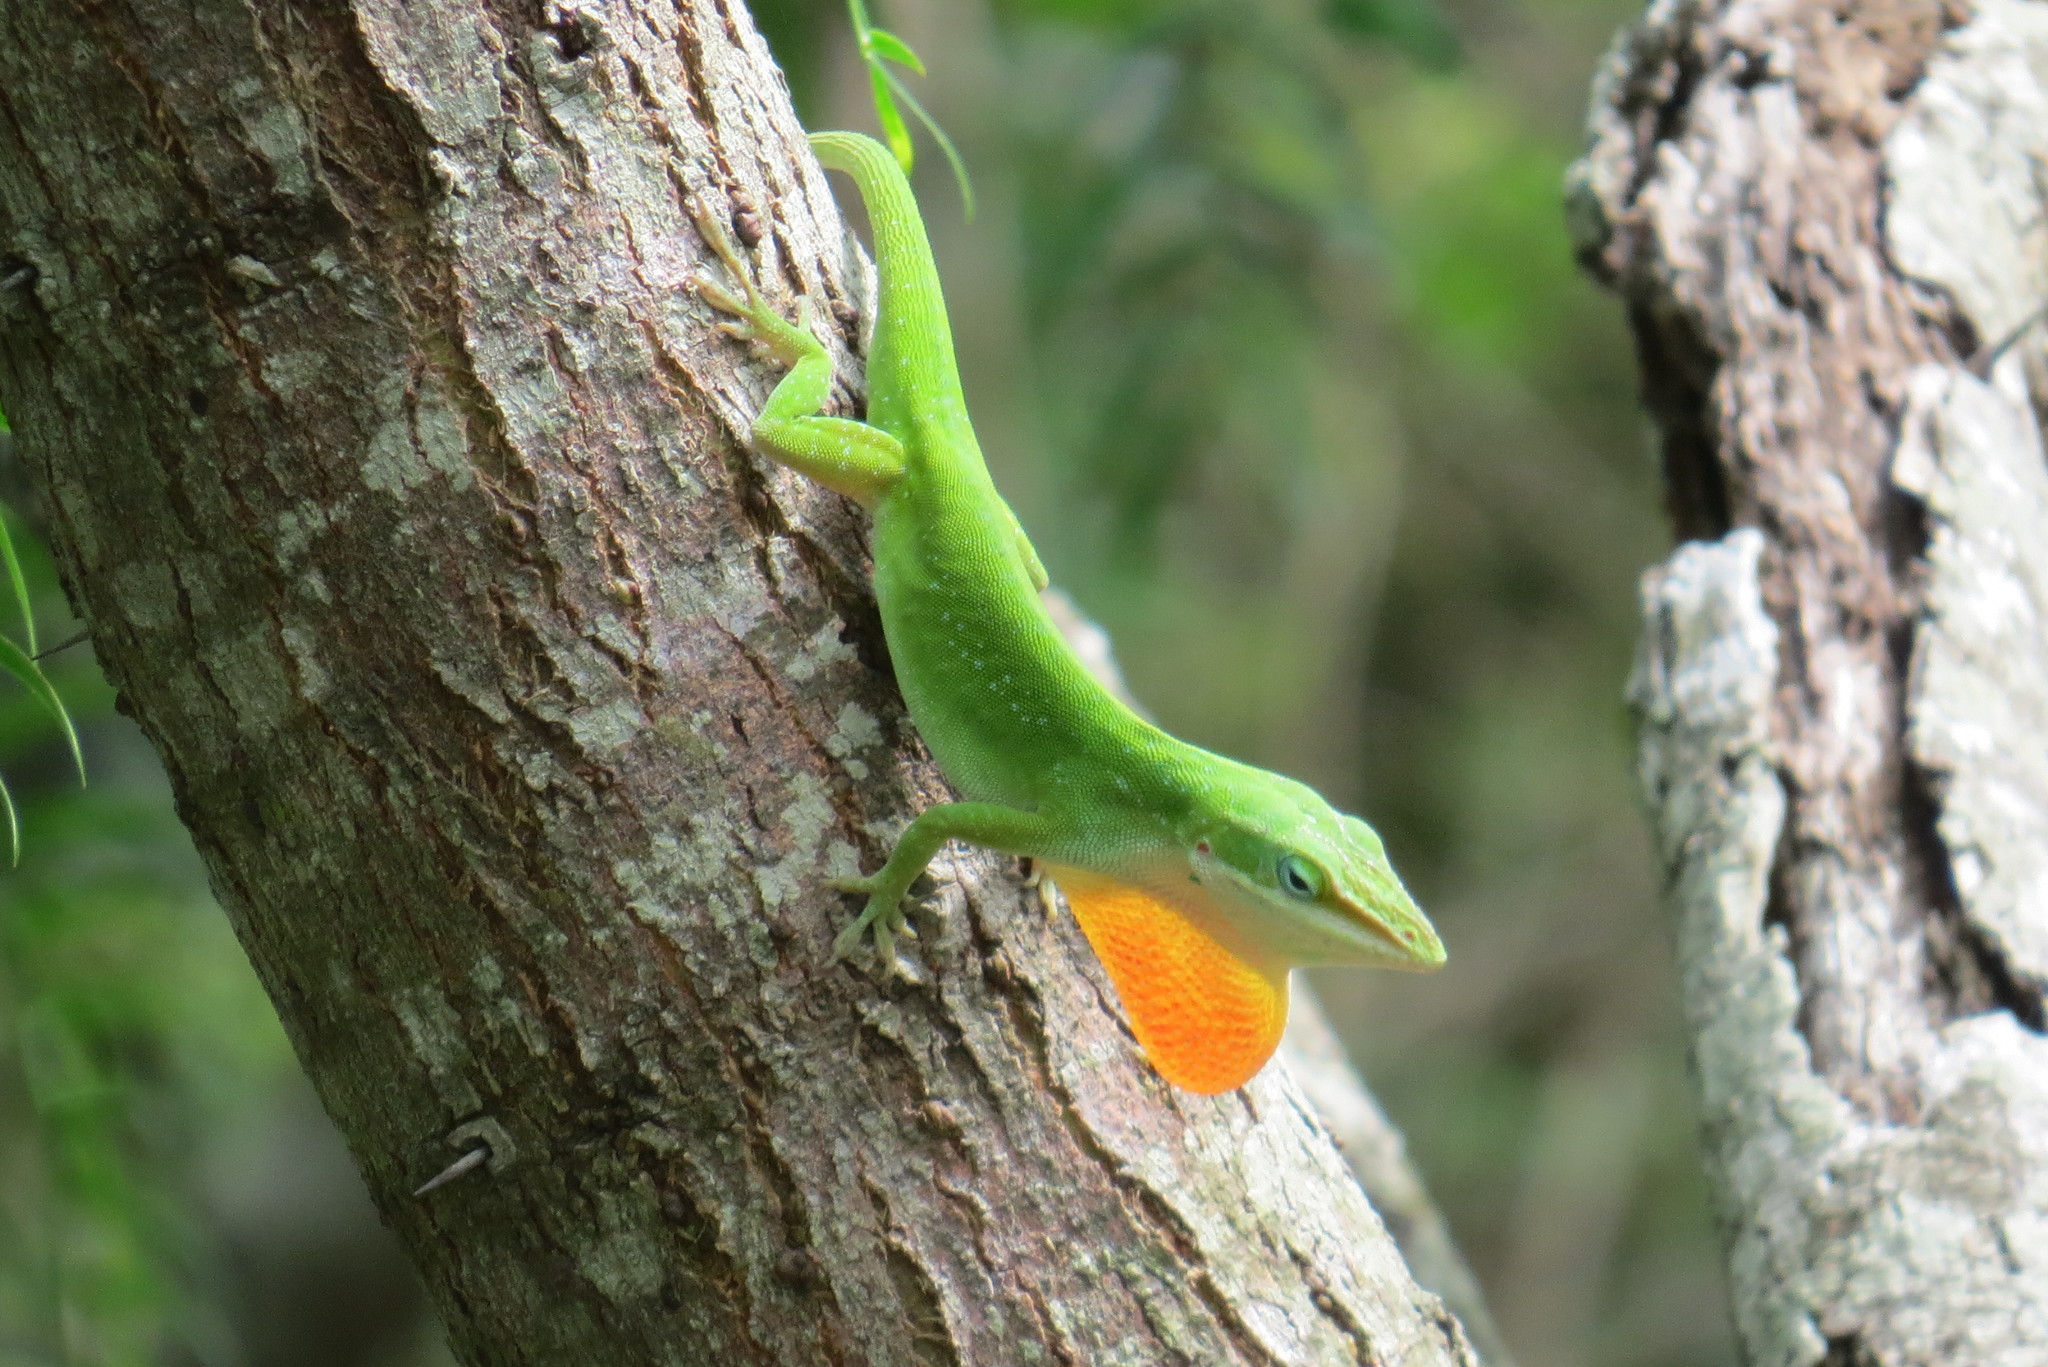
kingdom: Animalia
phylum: Chordata
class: Squamata
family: Dactyloidae
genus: Anolis
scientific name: Anolis carolinensis
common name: Green anole
